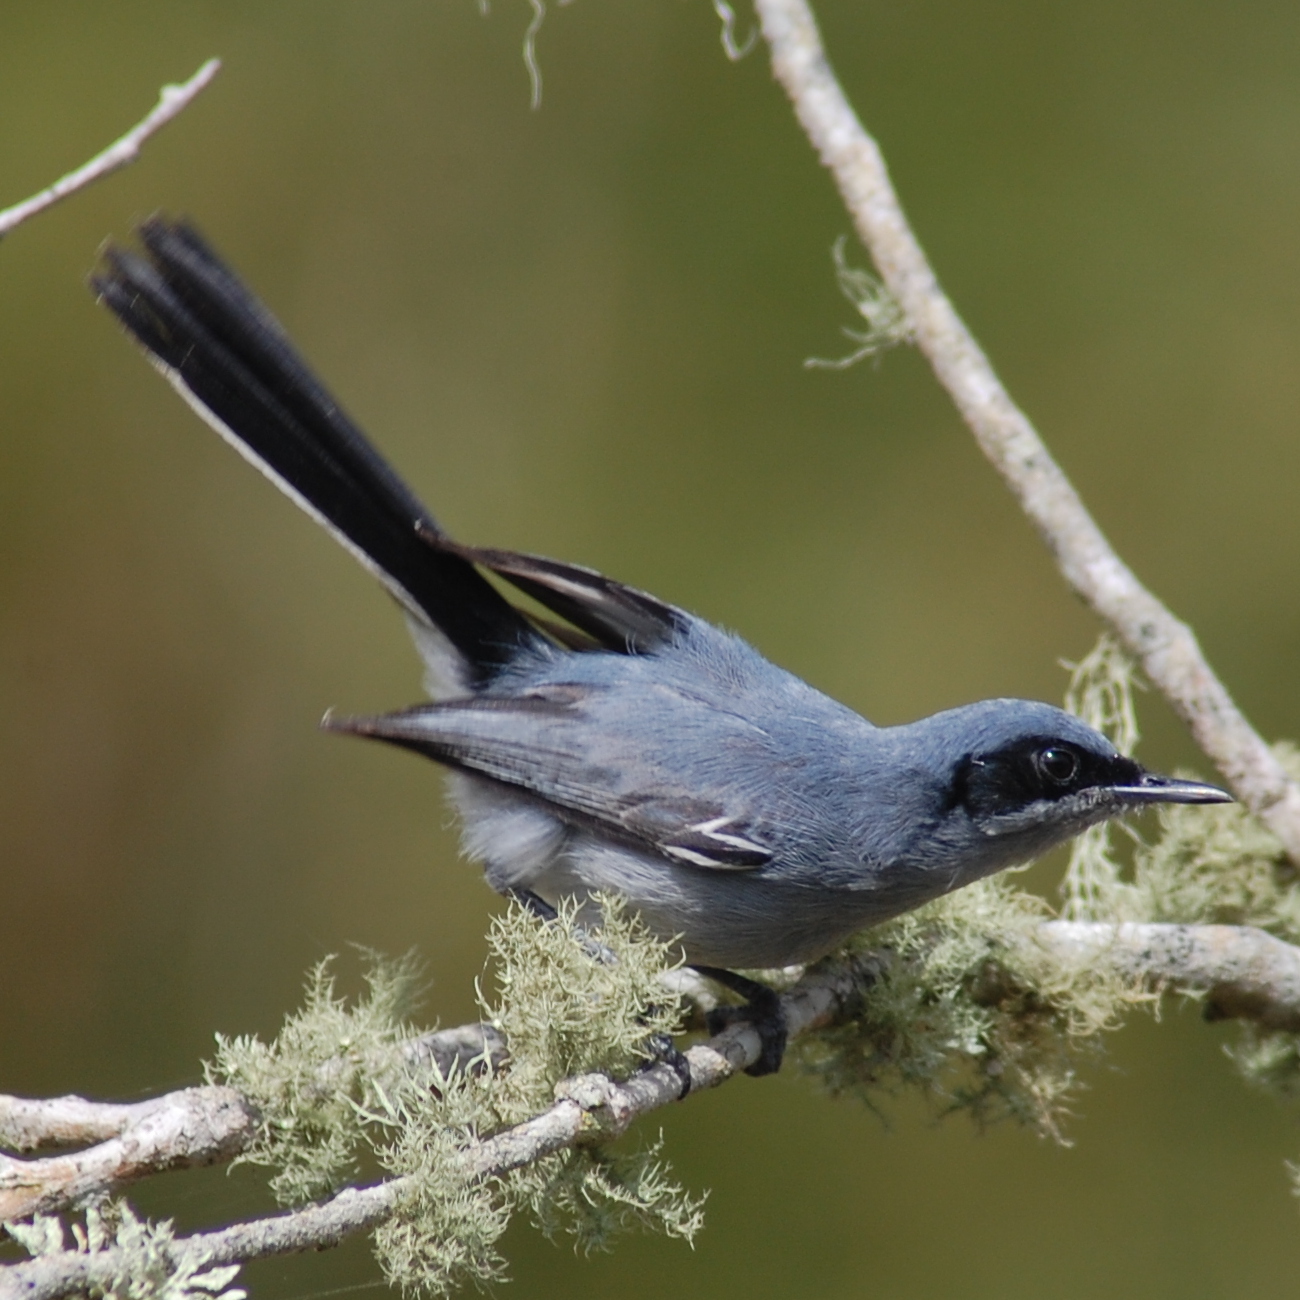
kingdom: Animalia
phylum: Chordata
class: Aves
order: Passeriformes
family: Polioptilidae
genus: Polioptila
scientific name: Polioptila dumicola
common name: Masked gnatcatcher
